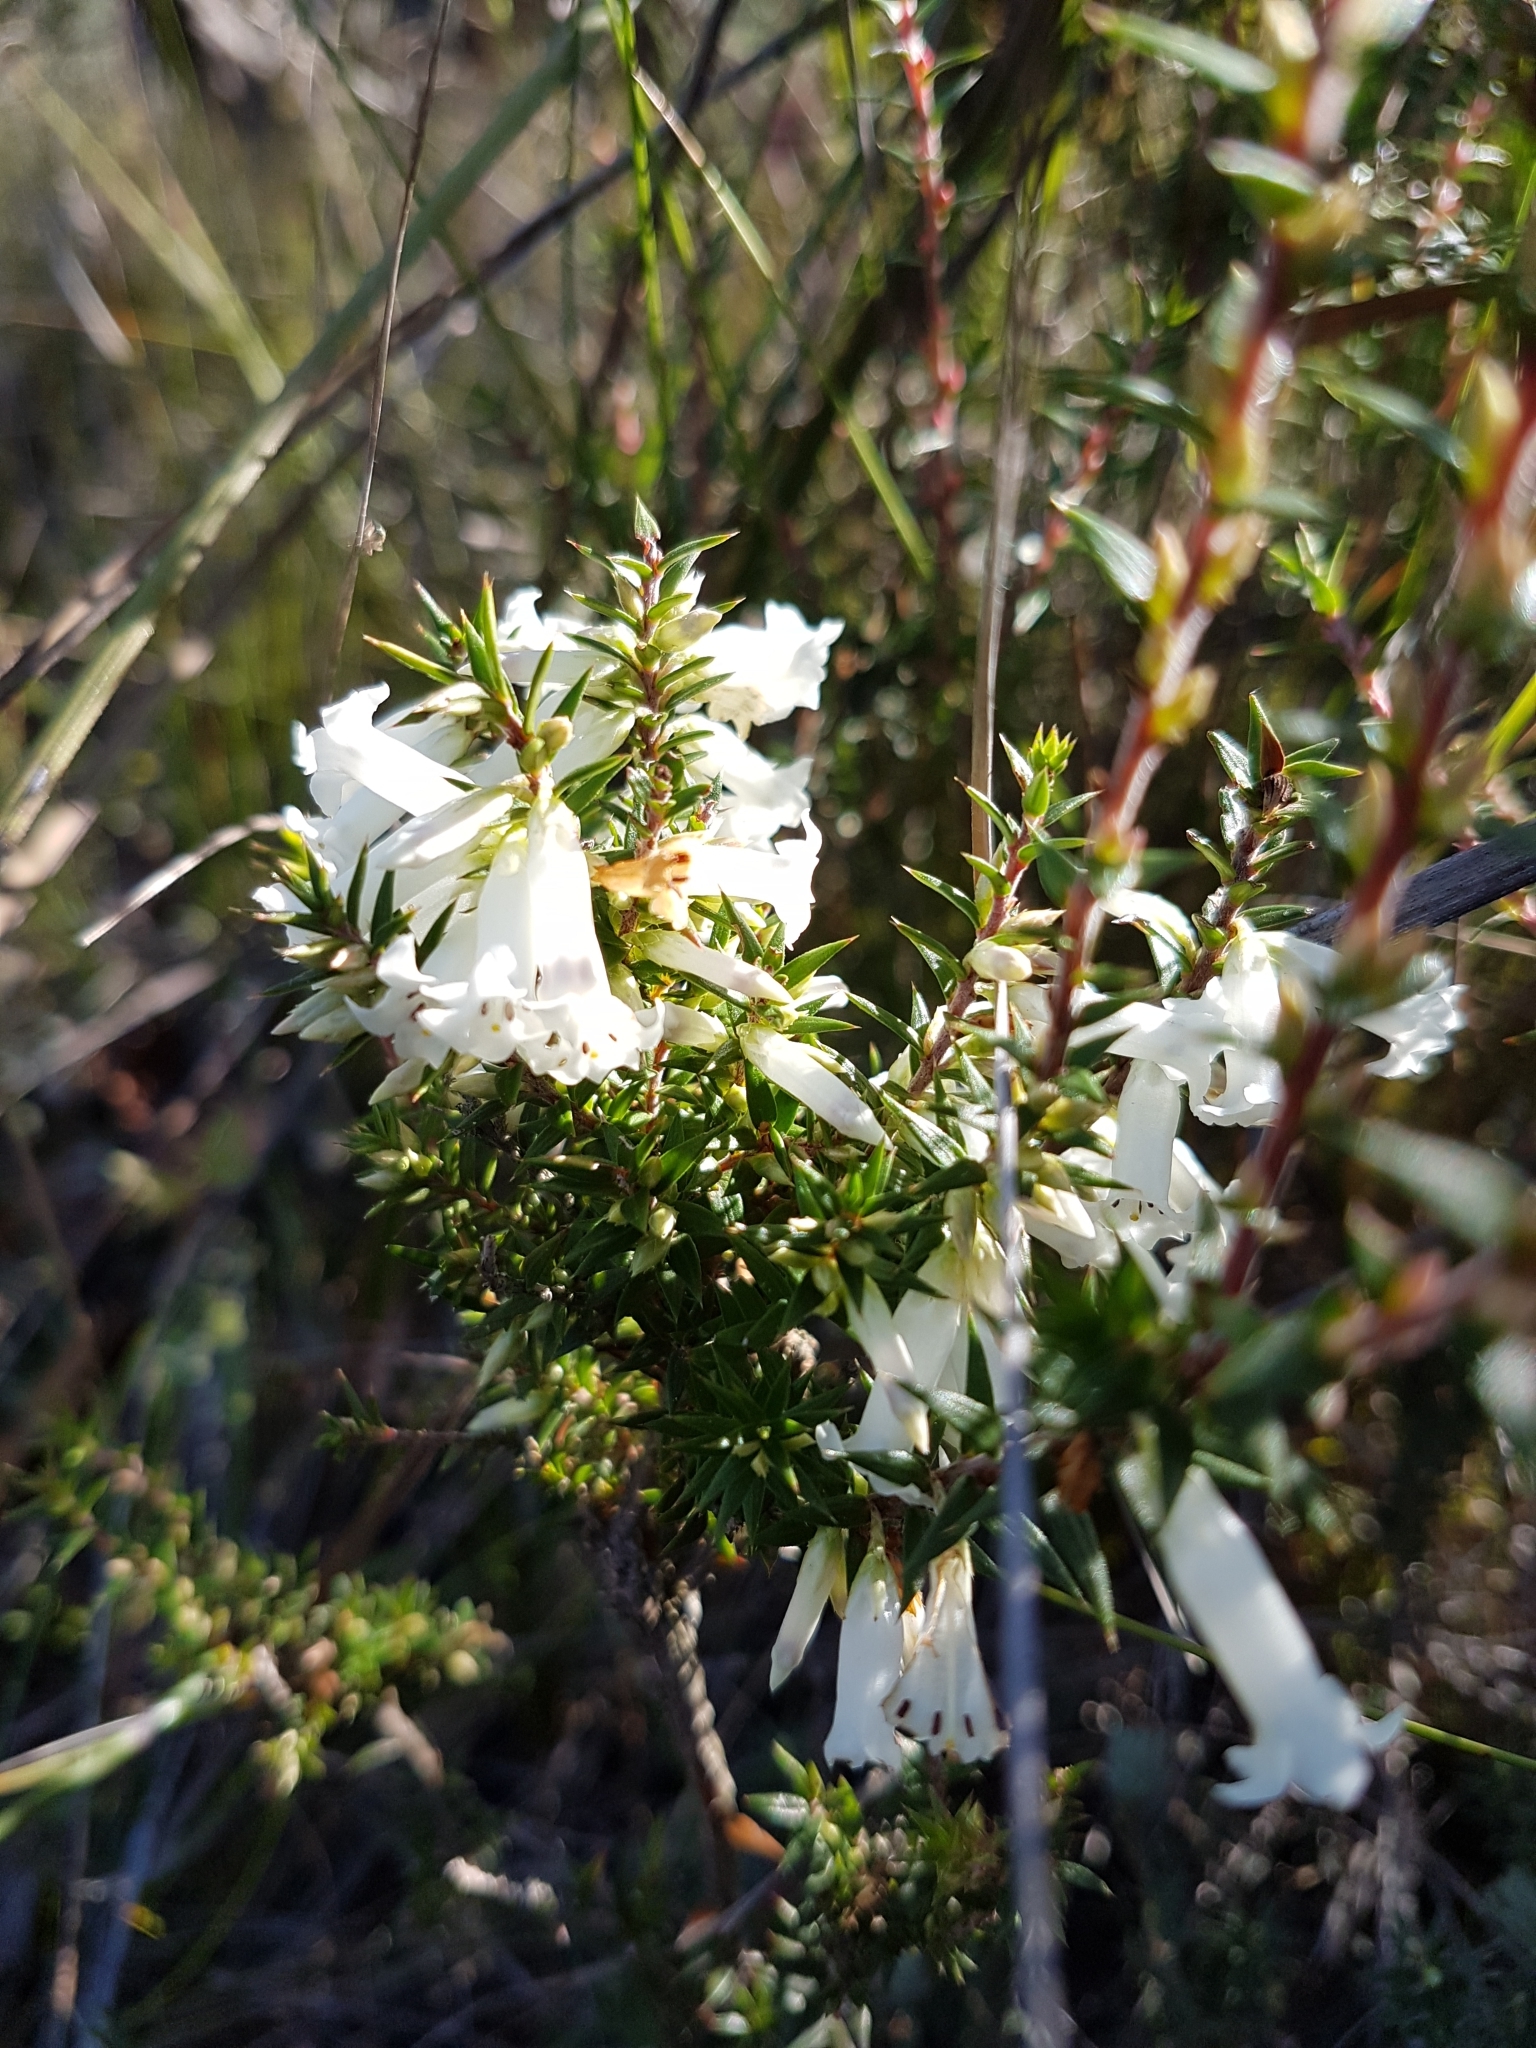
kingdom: Plantae
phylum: Tracheophyta
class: Magnoliopsida
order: Ericales
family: Ericaceae
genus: Epacris
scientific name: Epacris impressa
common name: Common-heath
